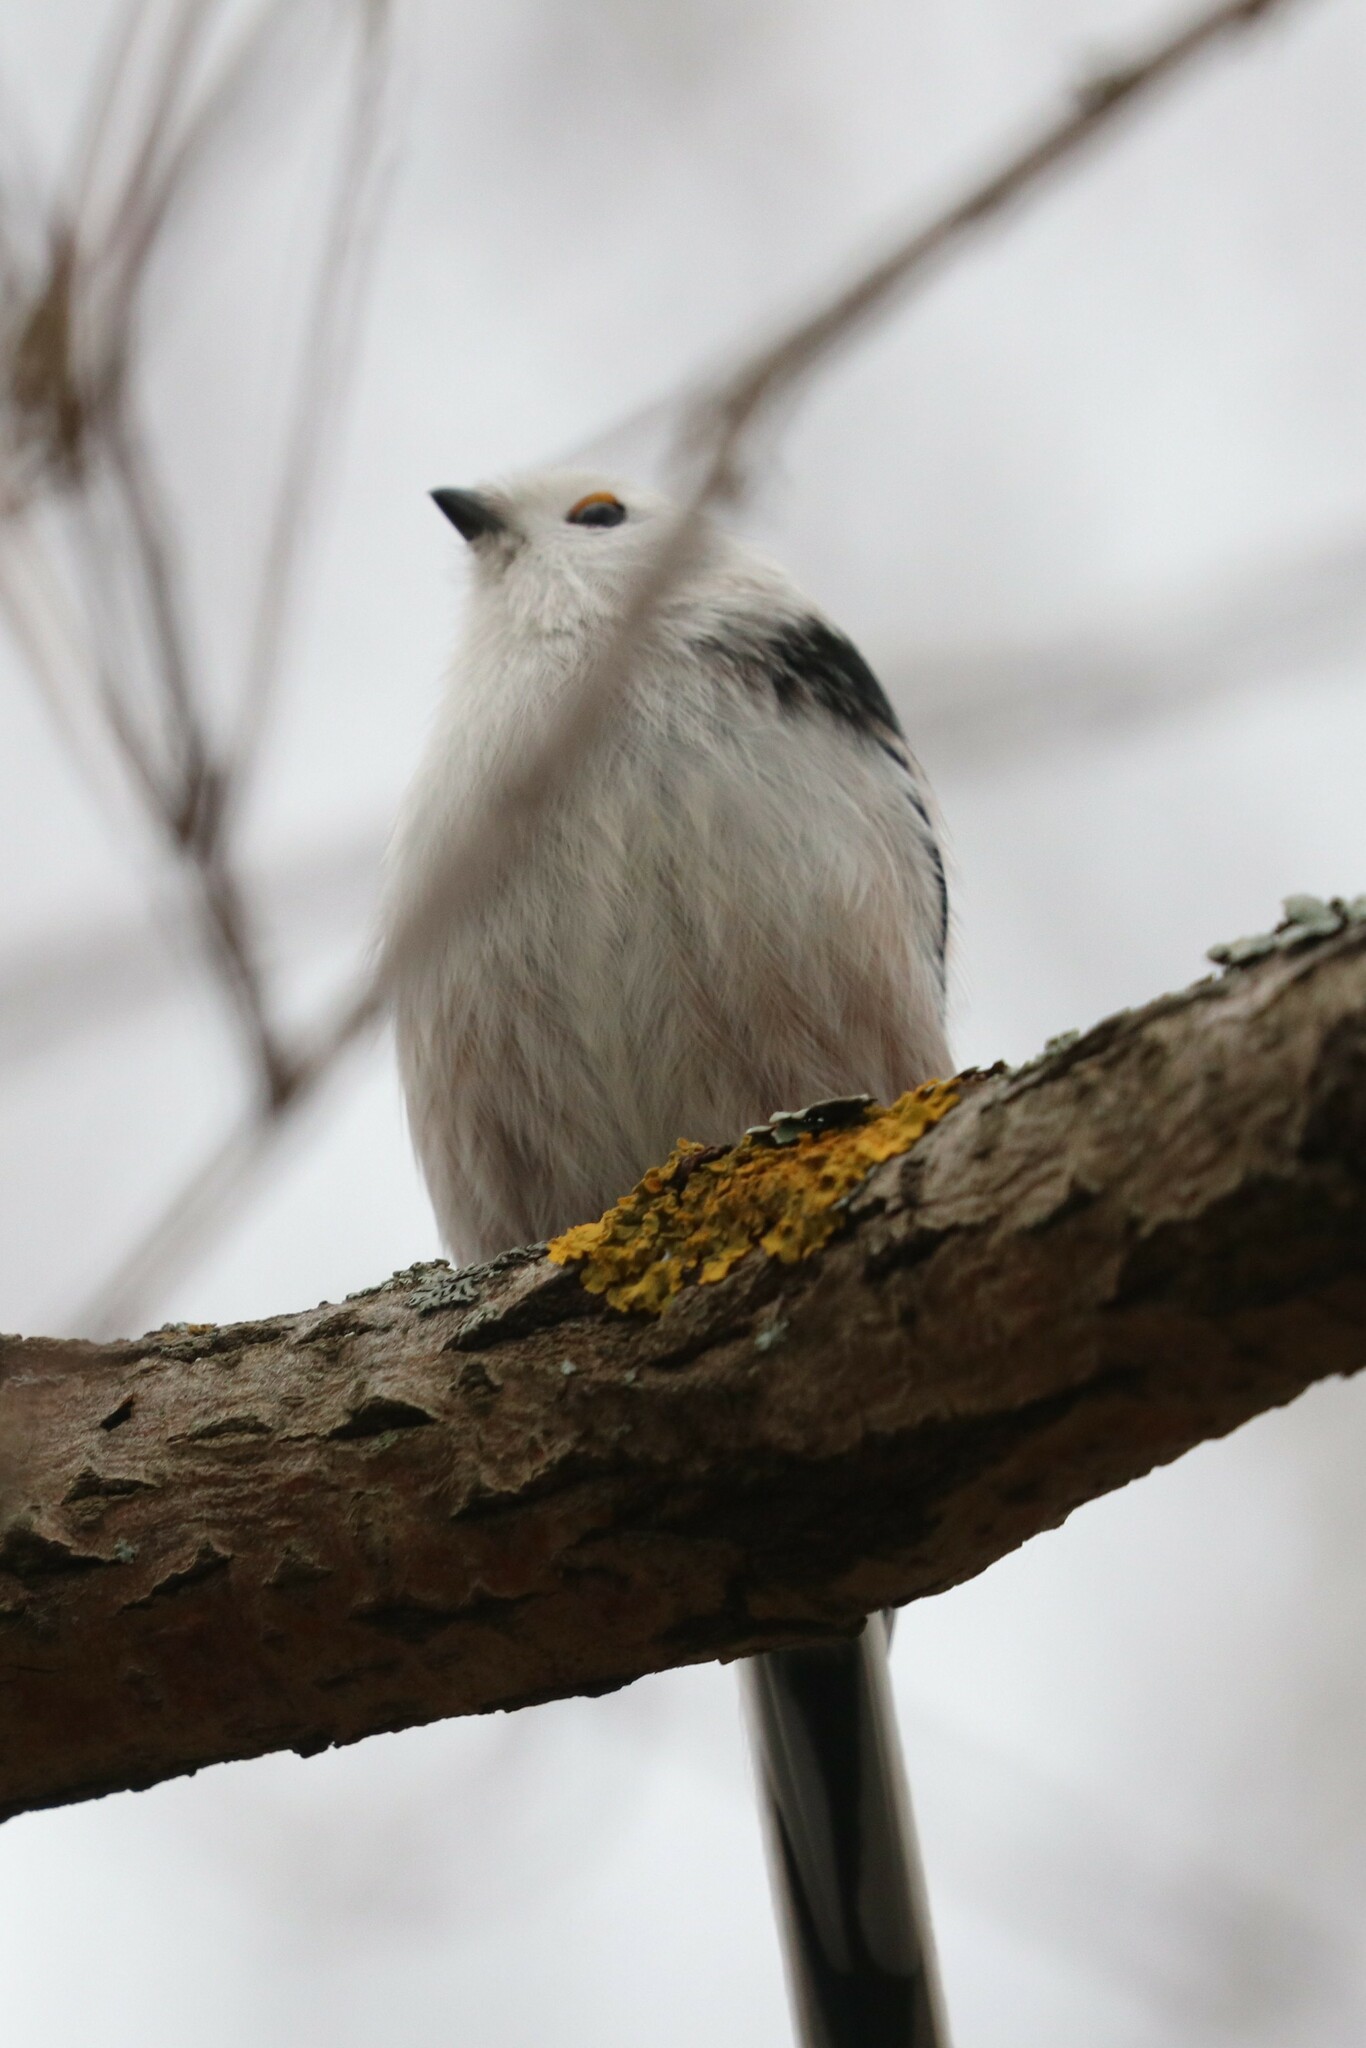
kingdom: Animalia
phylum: Chordata
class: Aves
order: Passeriformes
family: Aegithalidae
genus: Aegithalos
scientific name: Aegithalos caudatus
